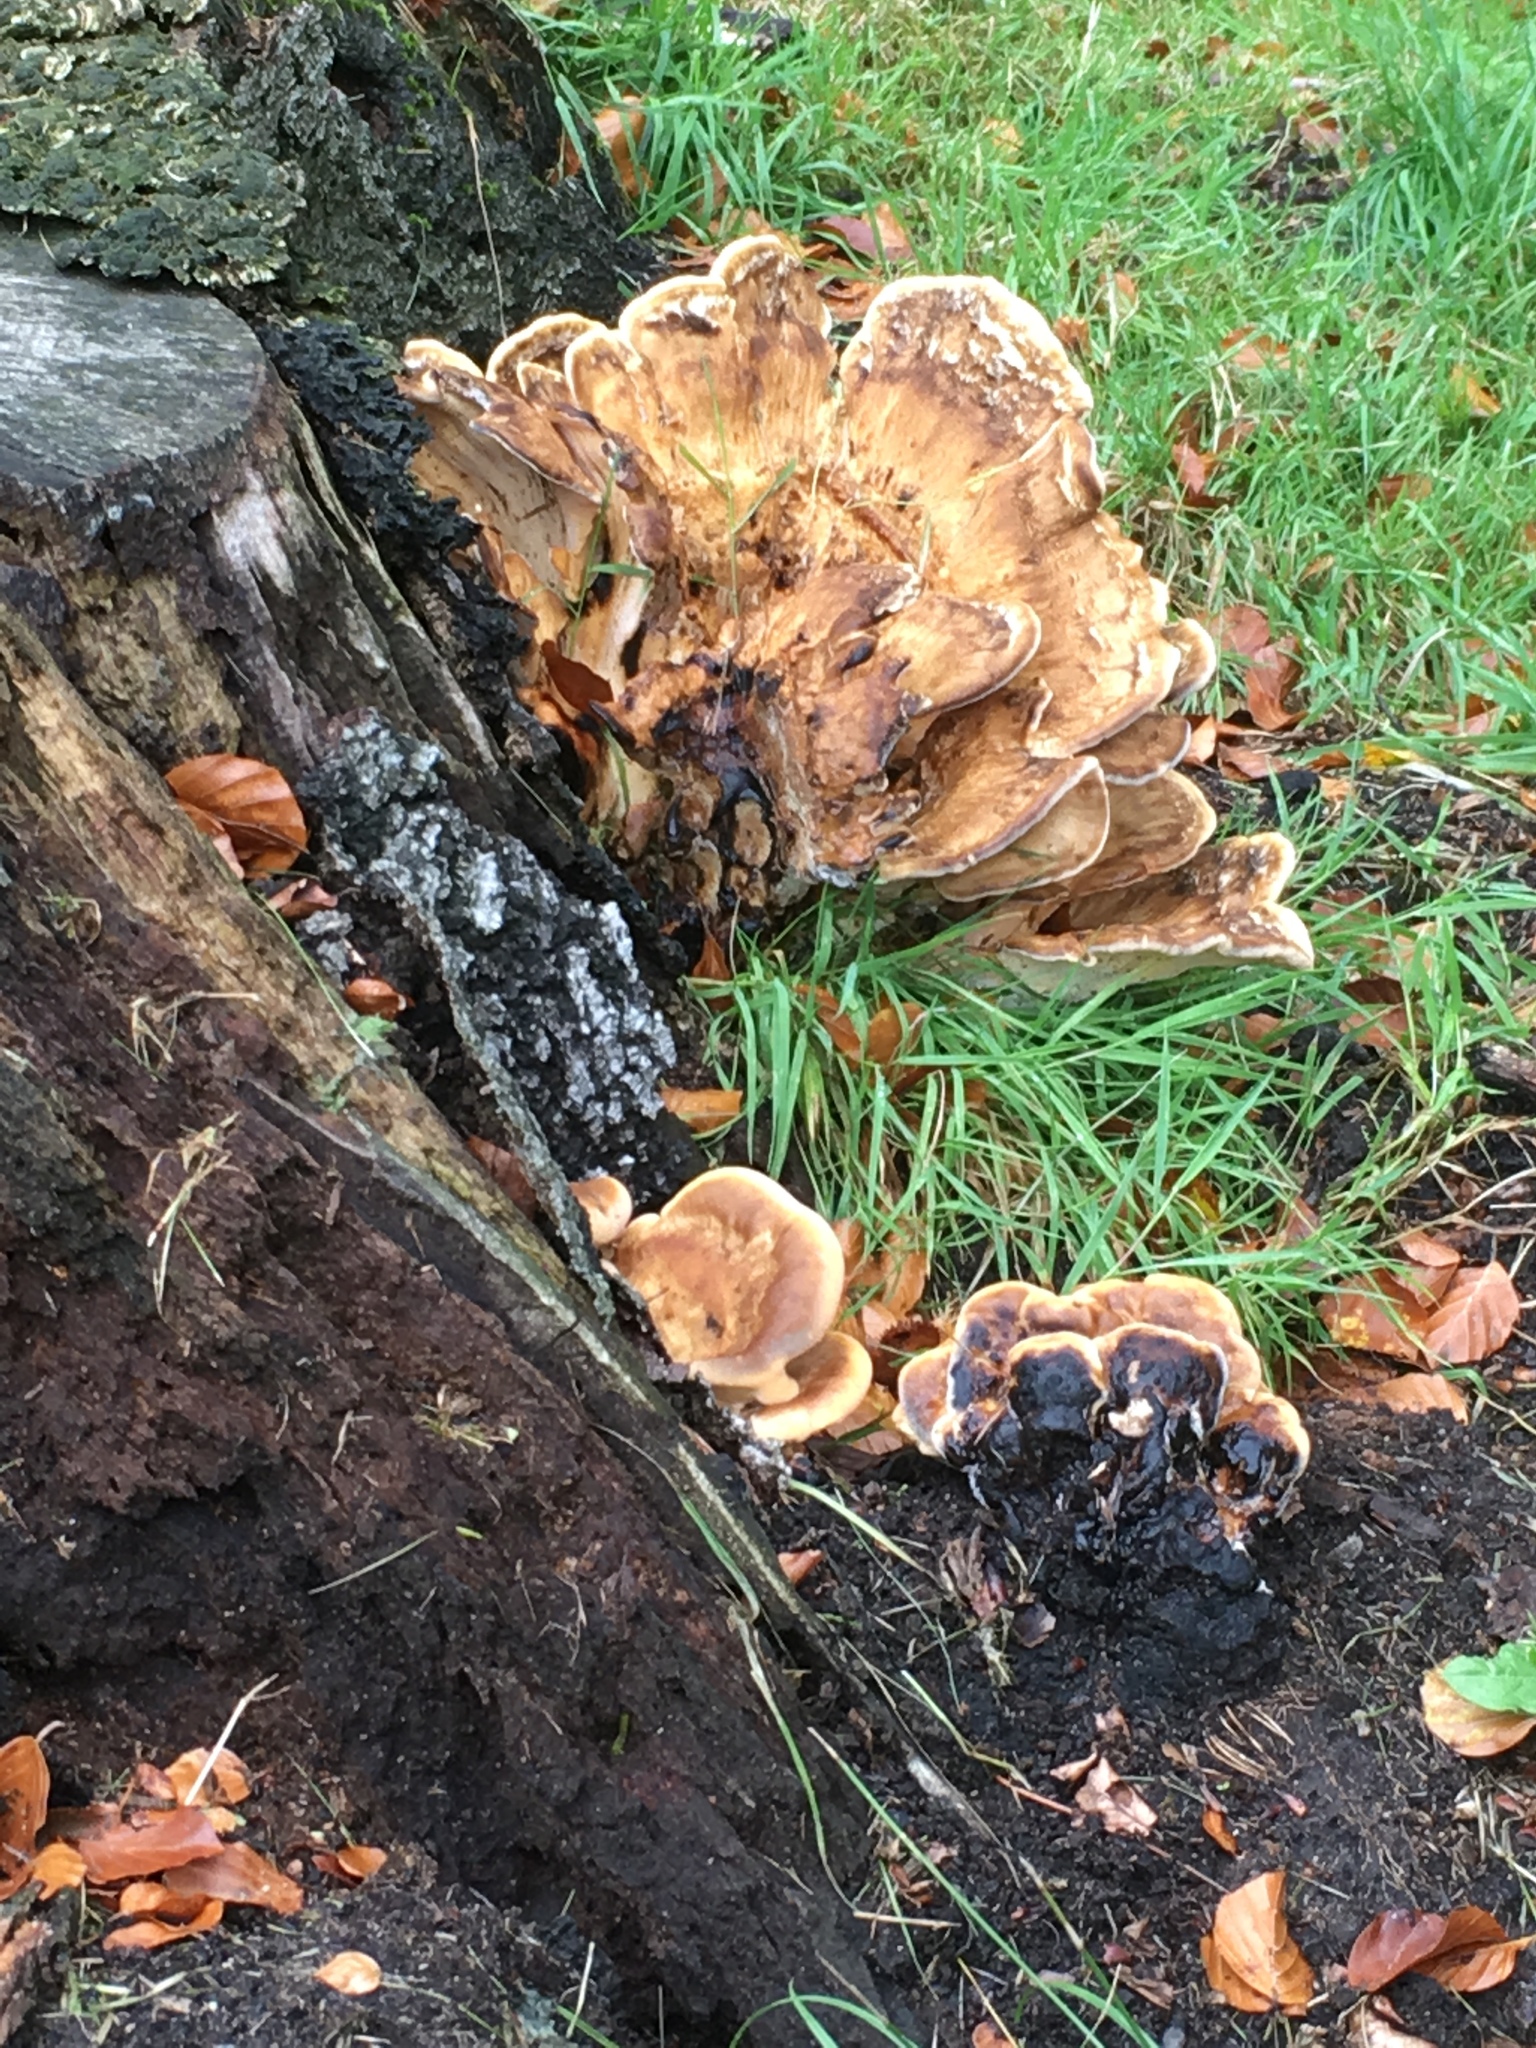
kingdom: Fungi
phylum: Basidiomycota
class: Agaricomycetes
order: Polyporales
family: Meripilaceae
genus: Meripilus
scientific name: Meripilus giganteus
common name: Giant polypore
